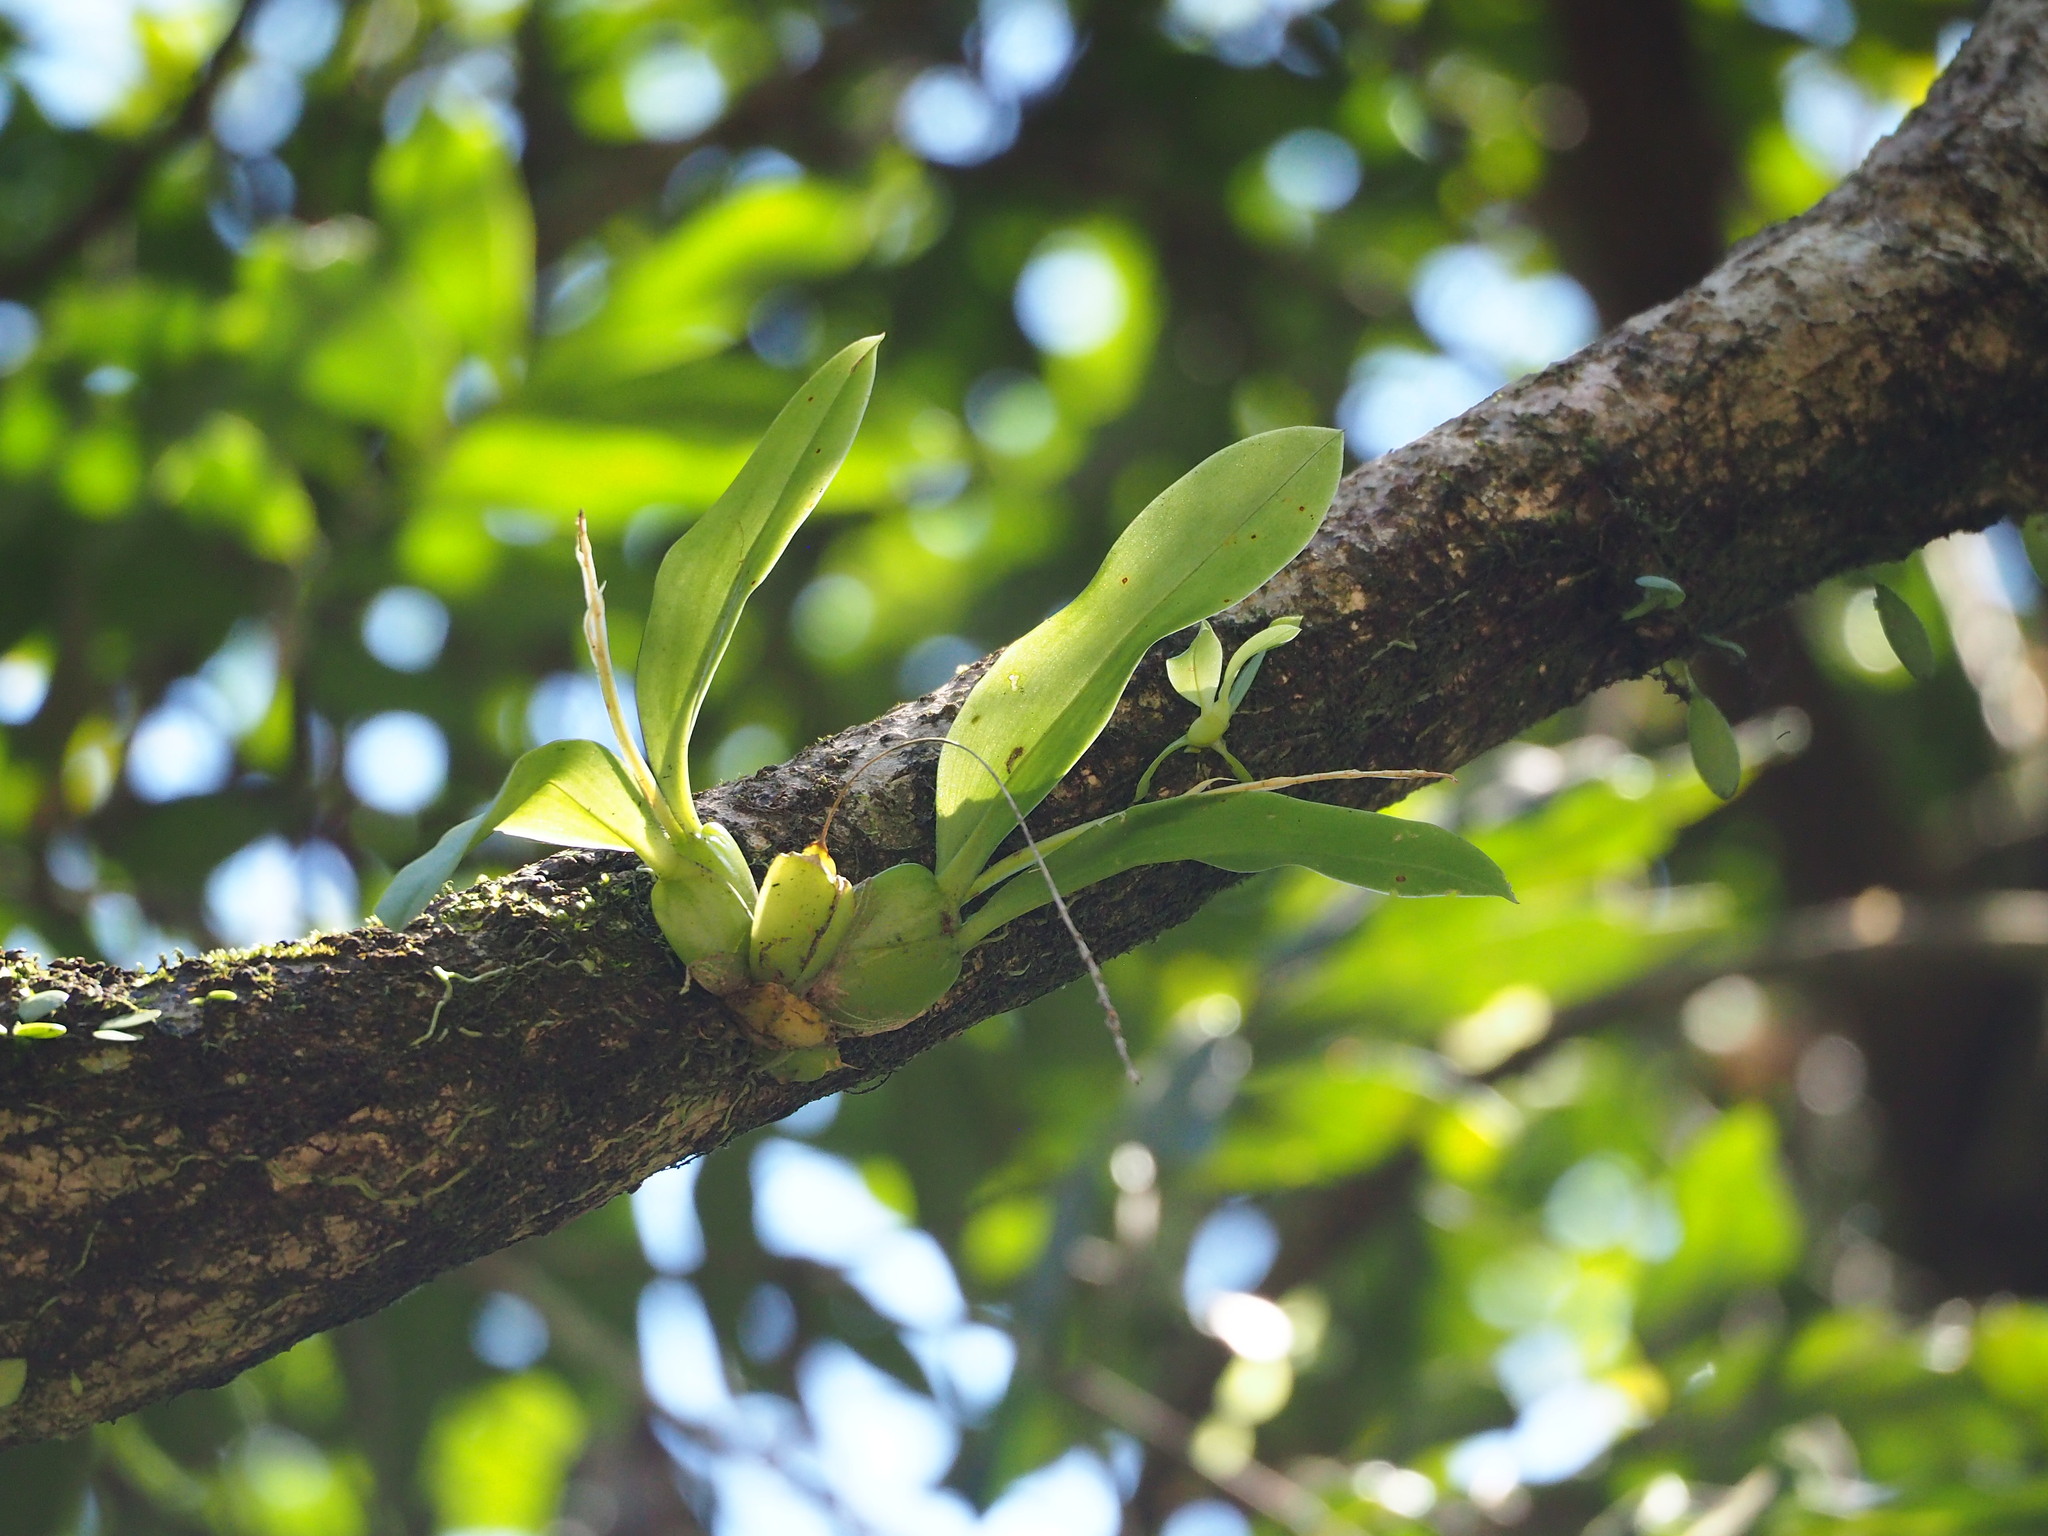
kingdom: Plantae
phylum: Tracheophyta
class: Liliopsida
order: Asparagales
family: Orchidaceae
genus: Liparis
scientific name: Liparis elliptica
